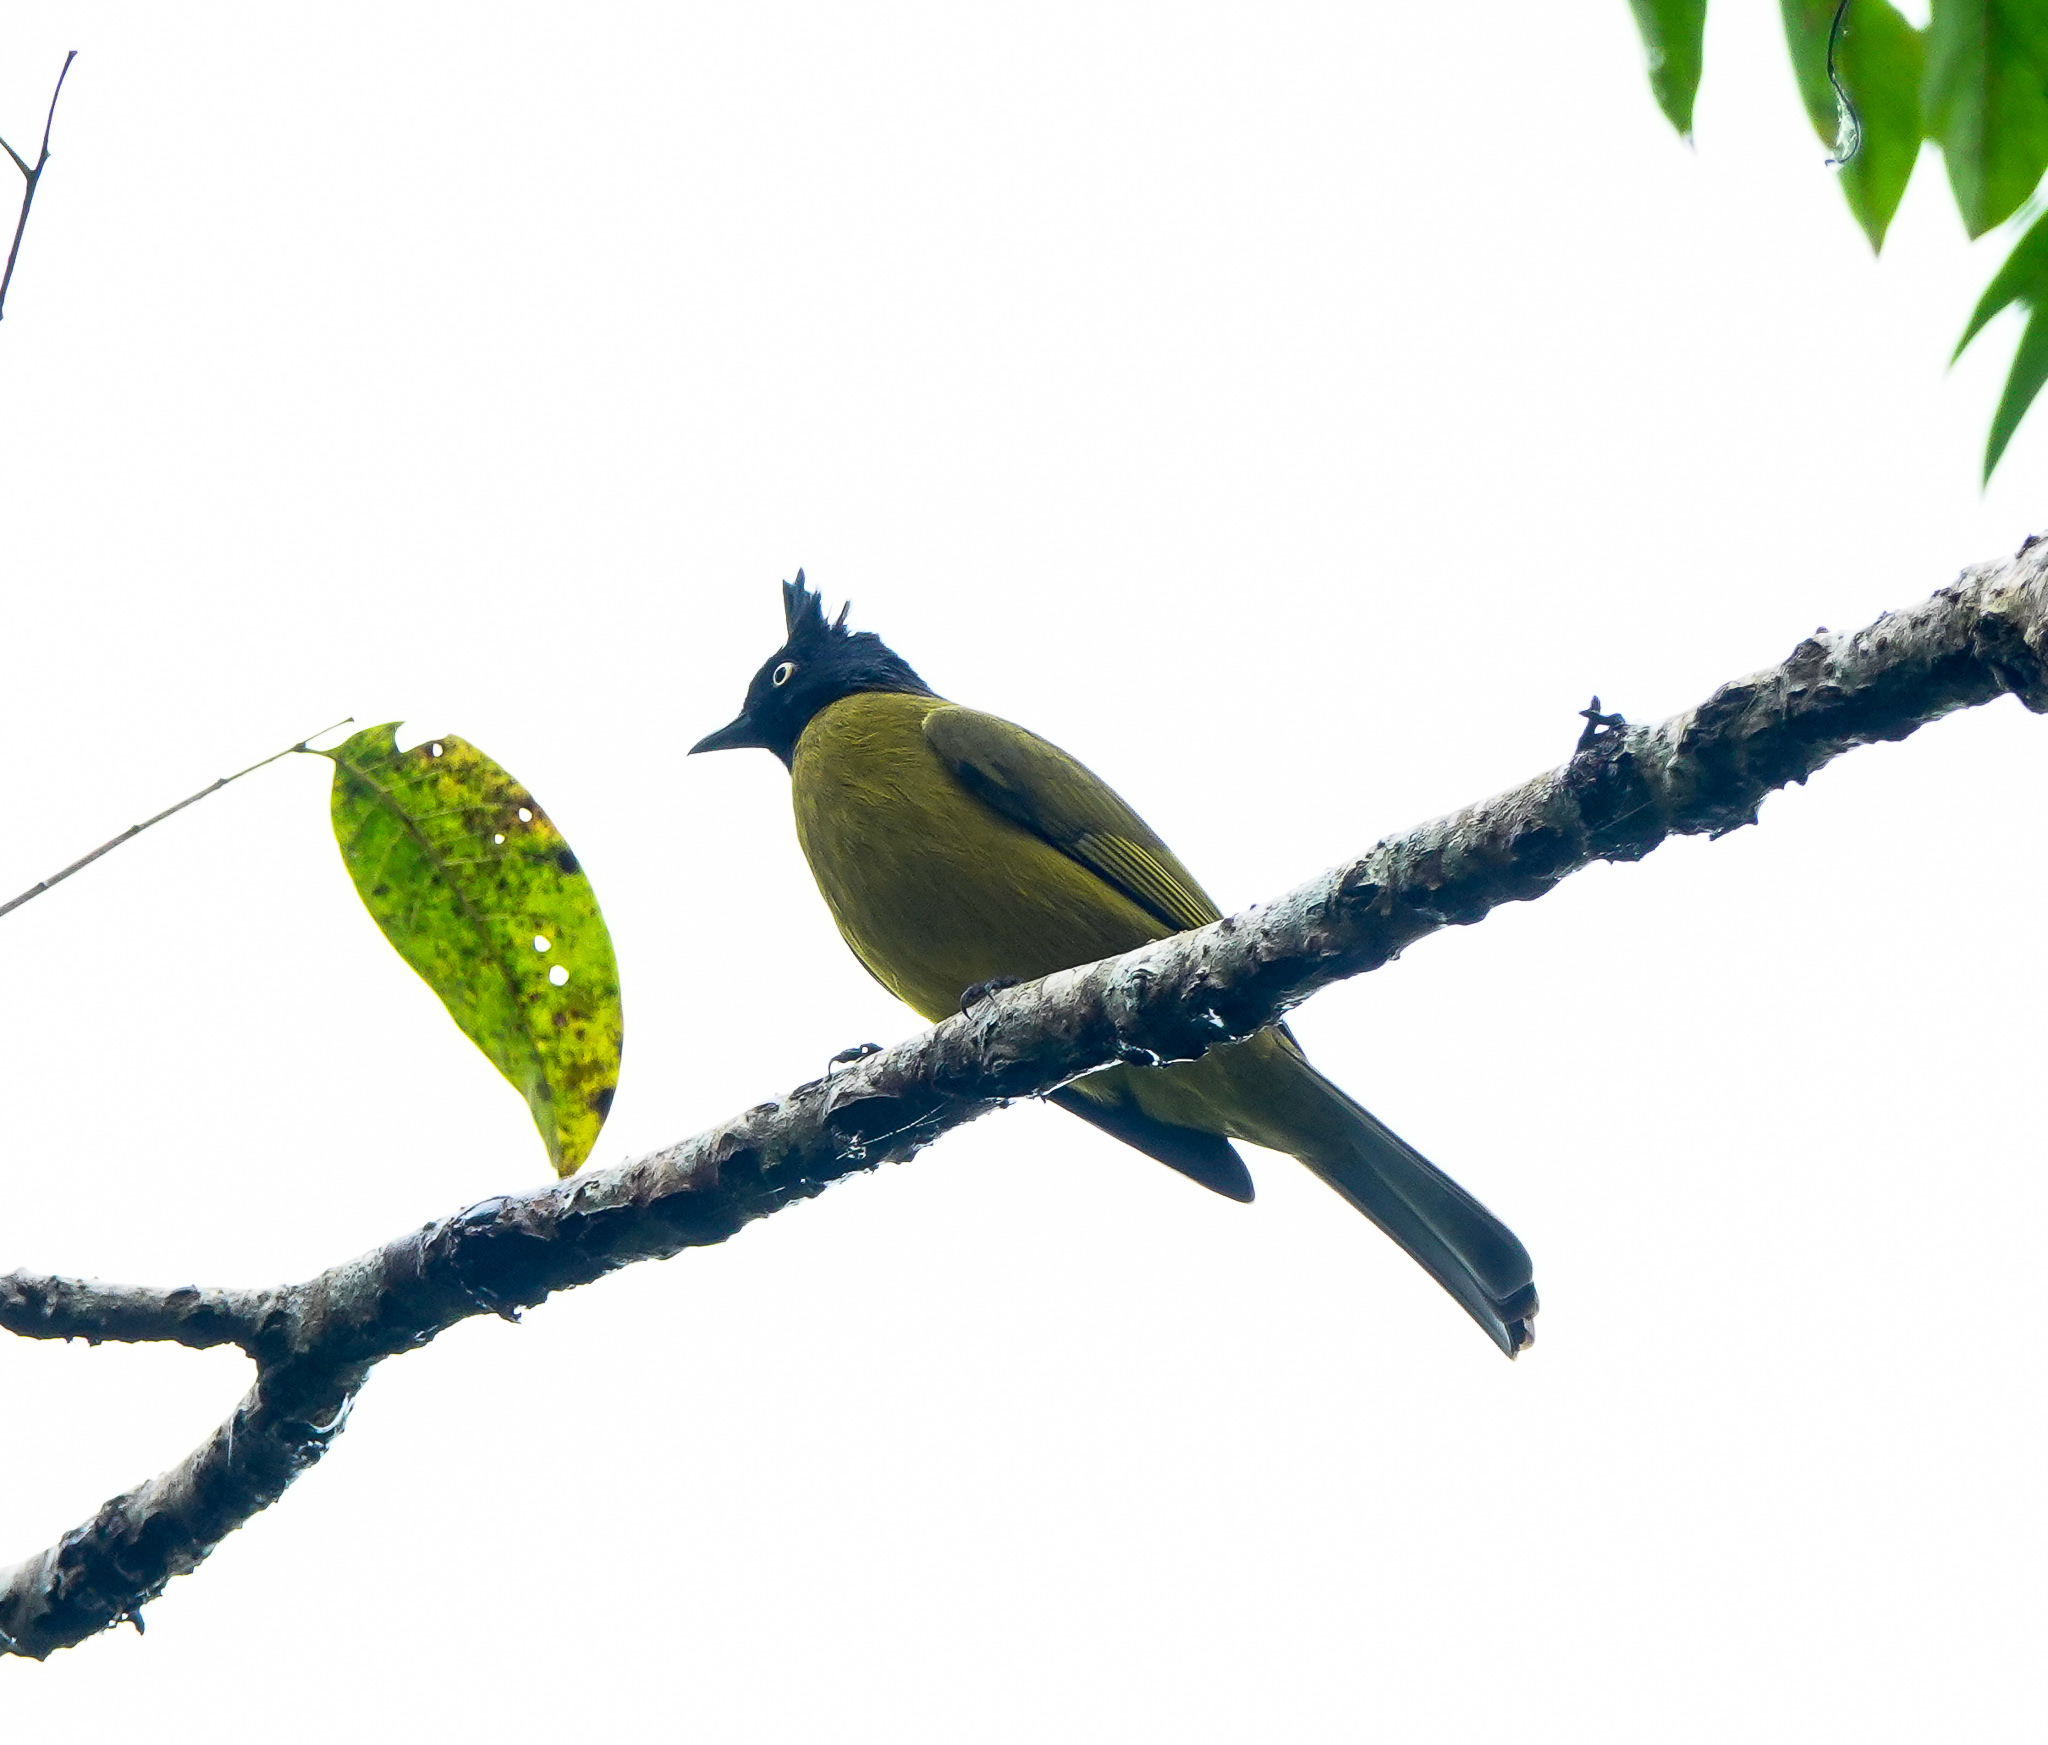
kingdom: Animalia
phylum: Chordata
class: Aves
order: Passeriformes
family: Pycnonotidae
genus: Pycnonotus
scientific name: Pycnonotus flaviventris
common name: Black-crested bulbul
